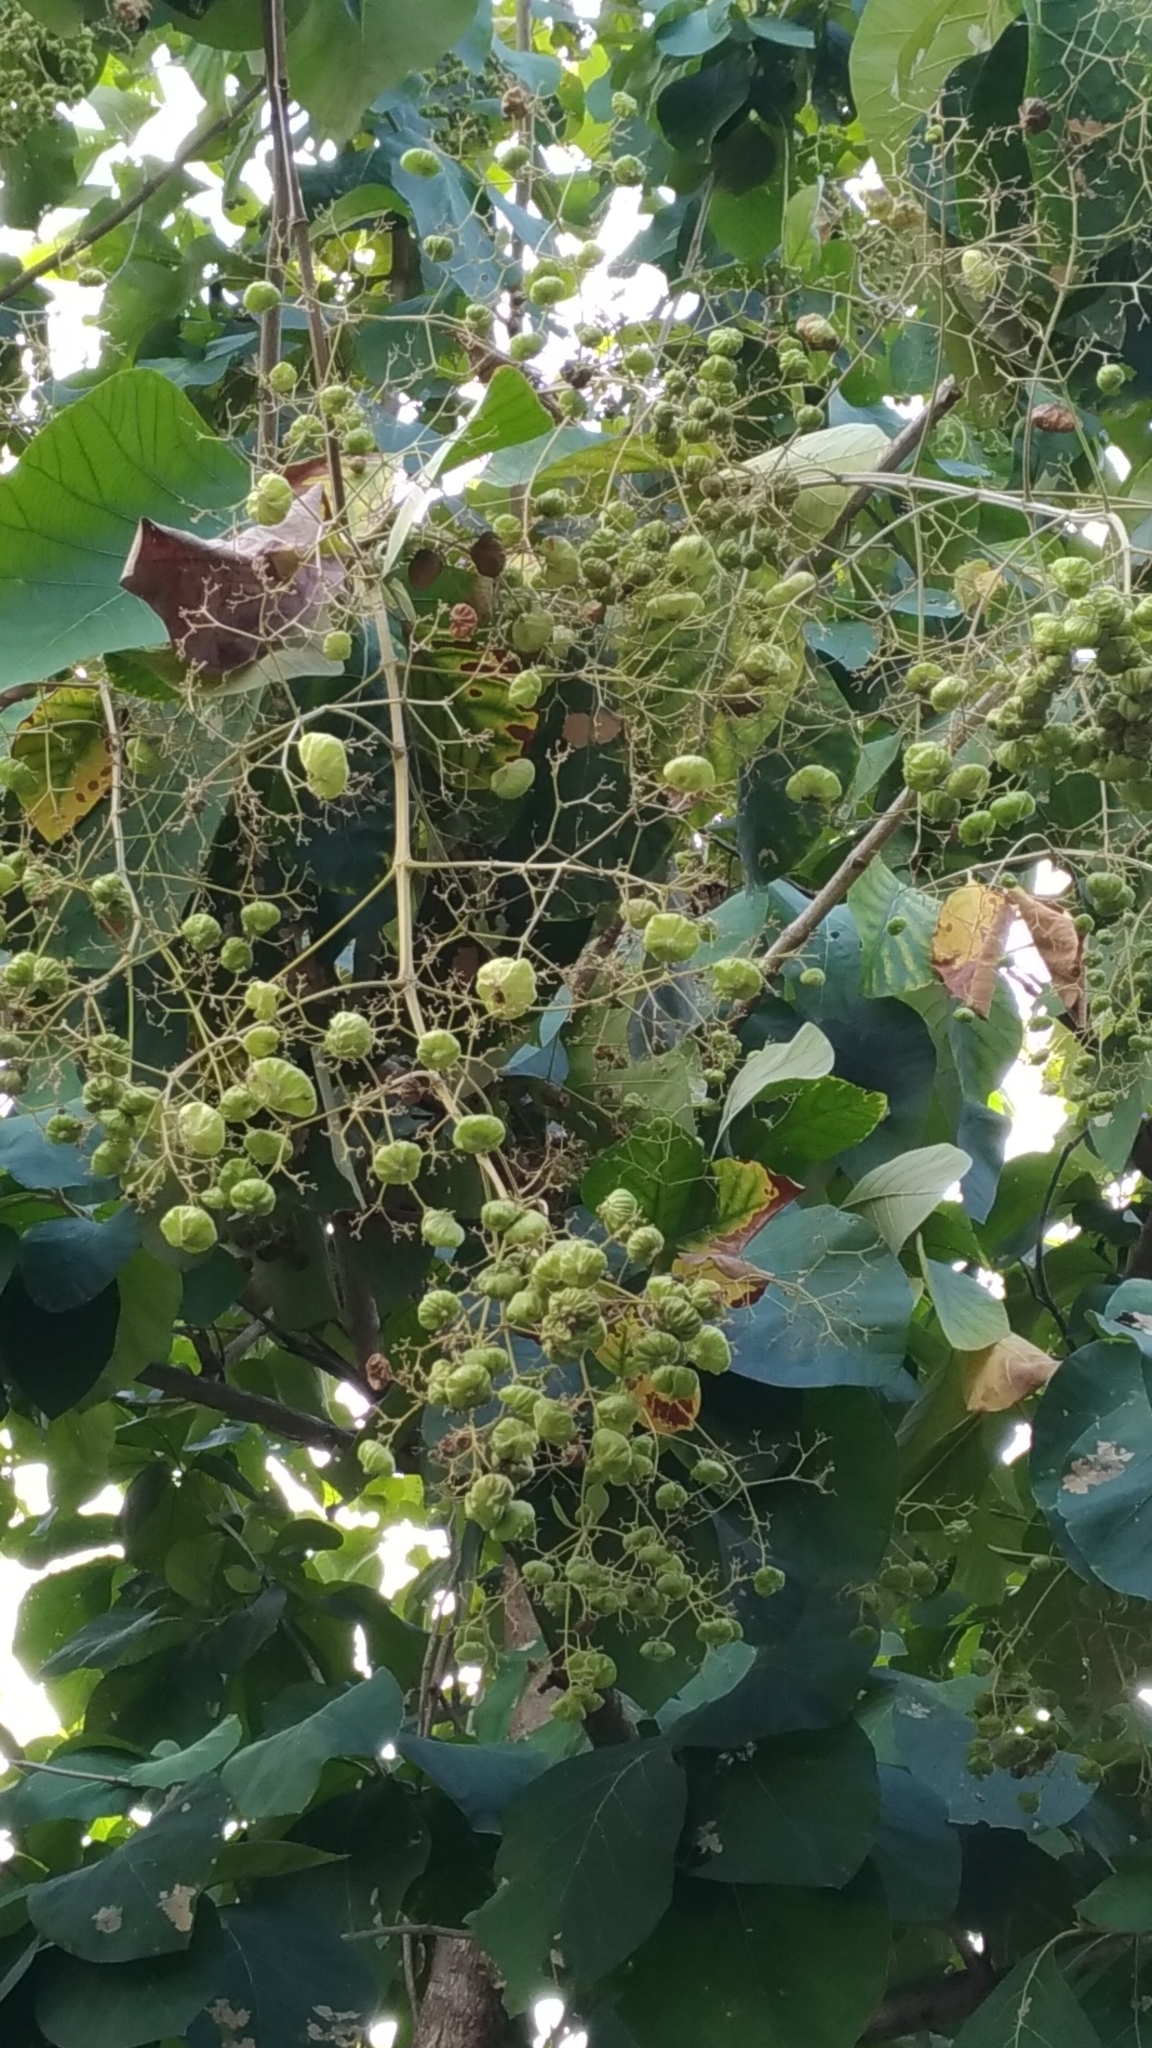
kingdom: Plantae
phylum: Tracheophyta
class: Magnoliopsida
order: Lamiales
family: Lamiaceae
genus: Tectona
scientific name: Tectona grandis
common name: Teak
